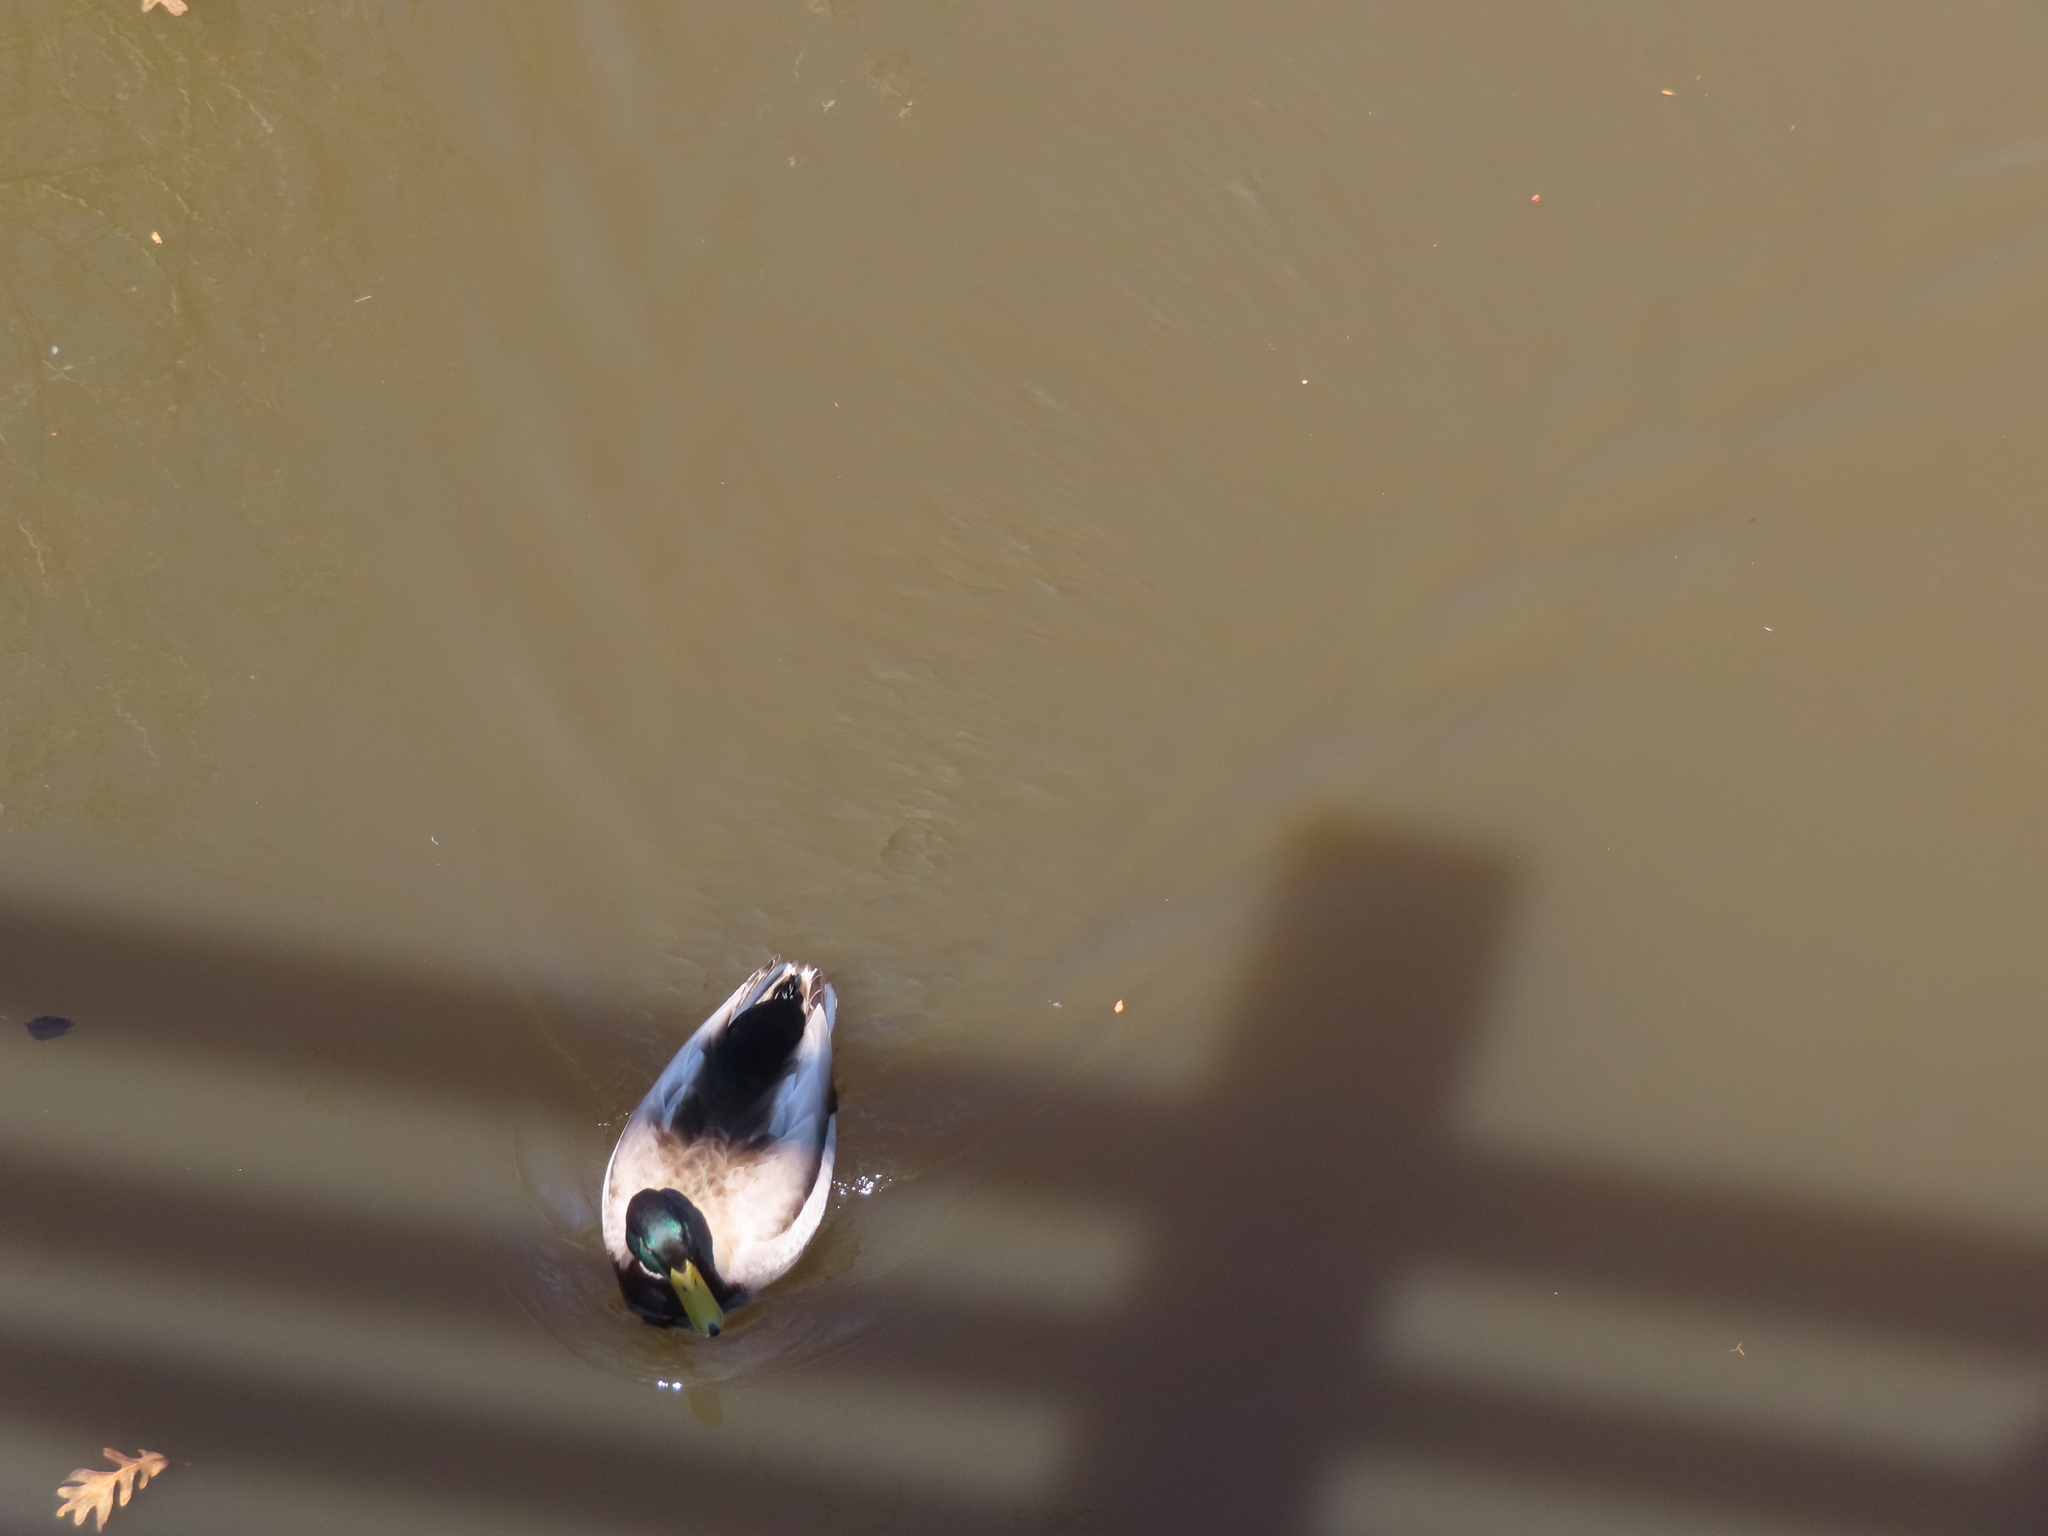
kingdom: Animalia
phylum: Chordata
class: Aves
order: Anseriformes
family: Anatidae
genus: Anas
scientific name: Anas platyrhynchos
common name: Mallard
